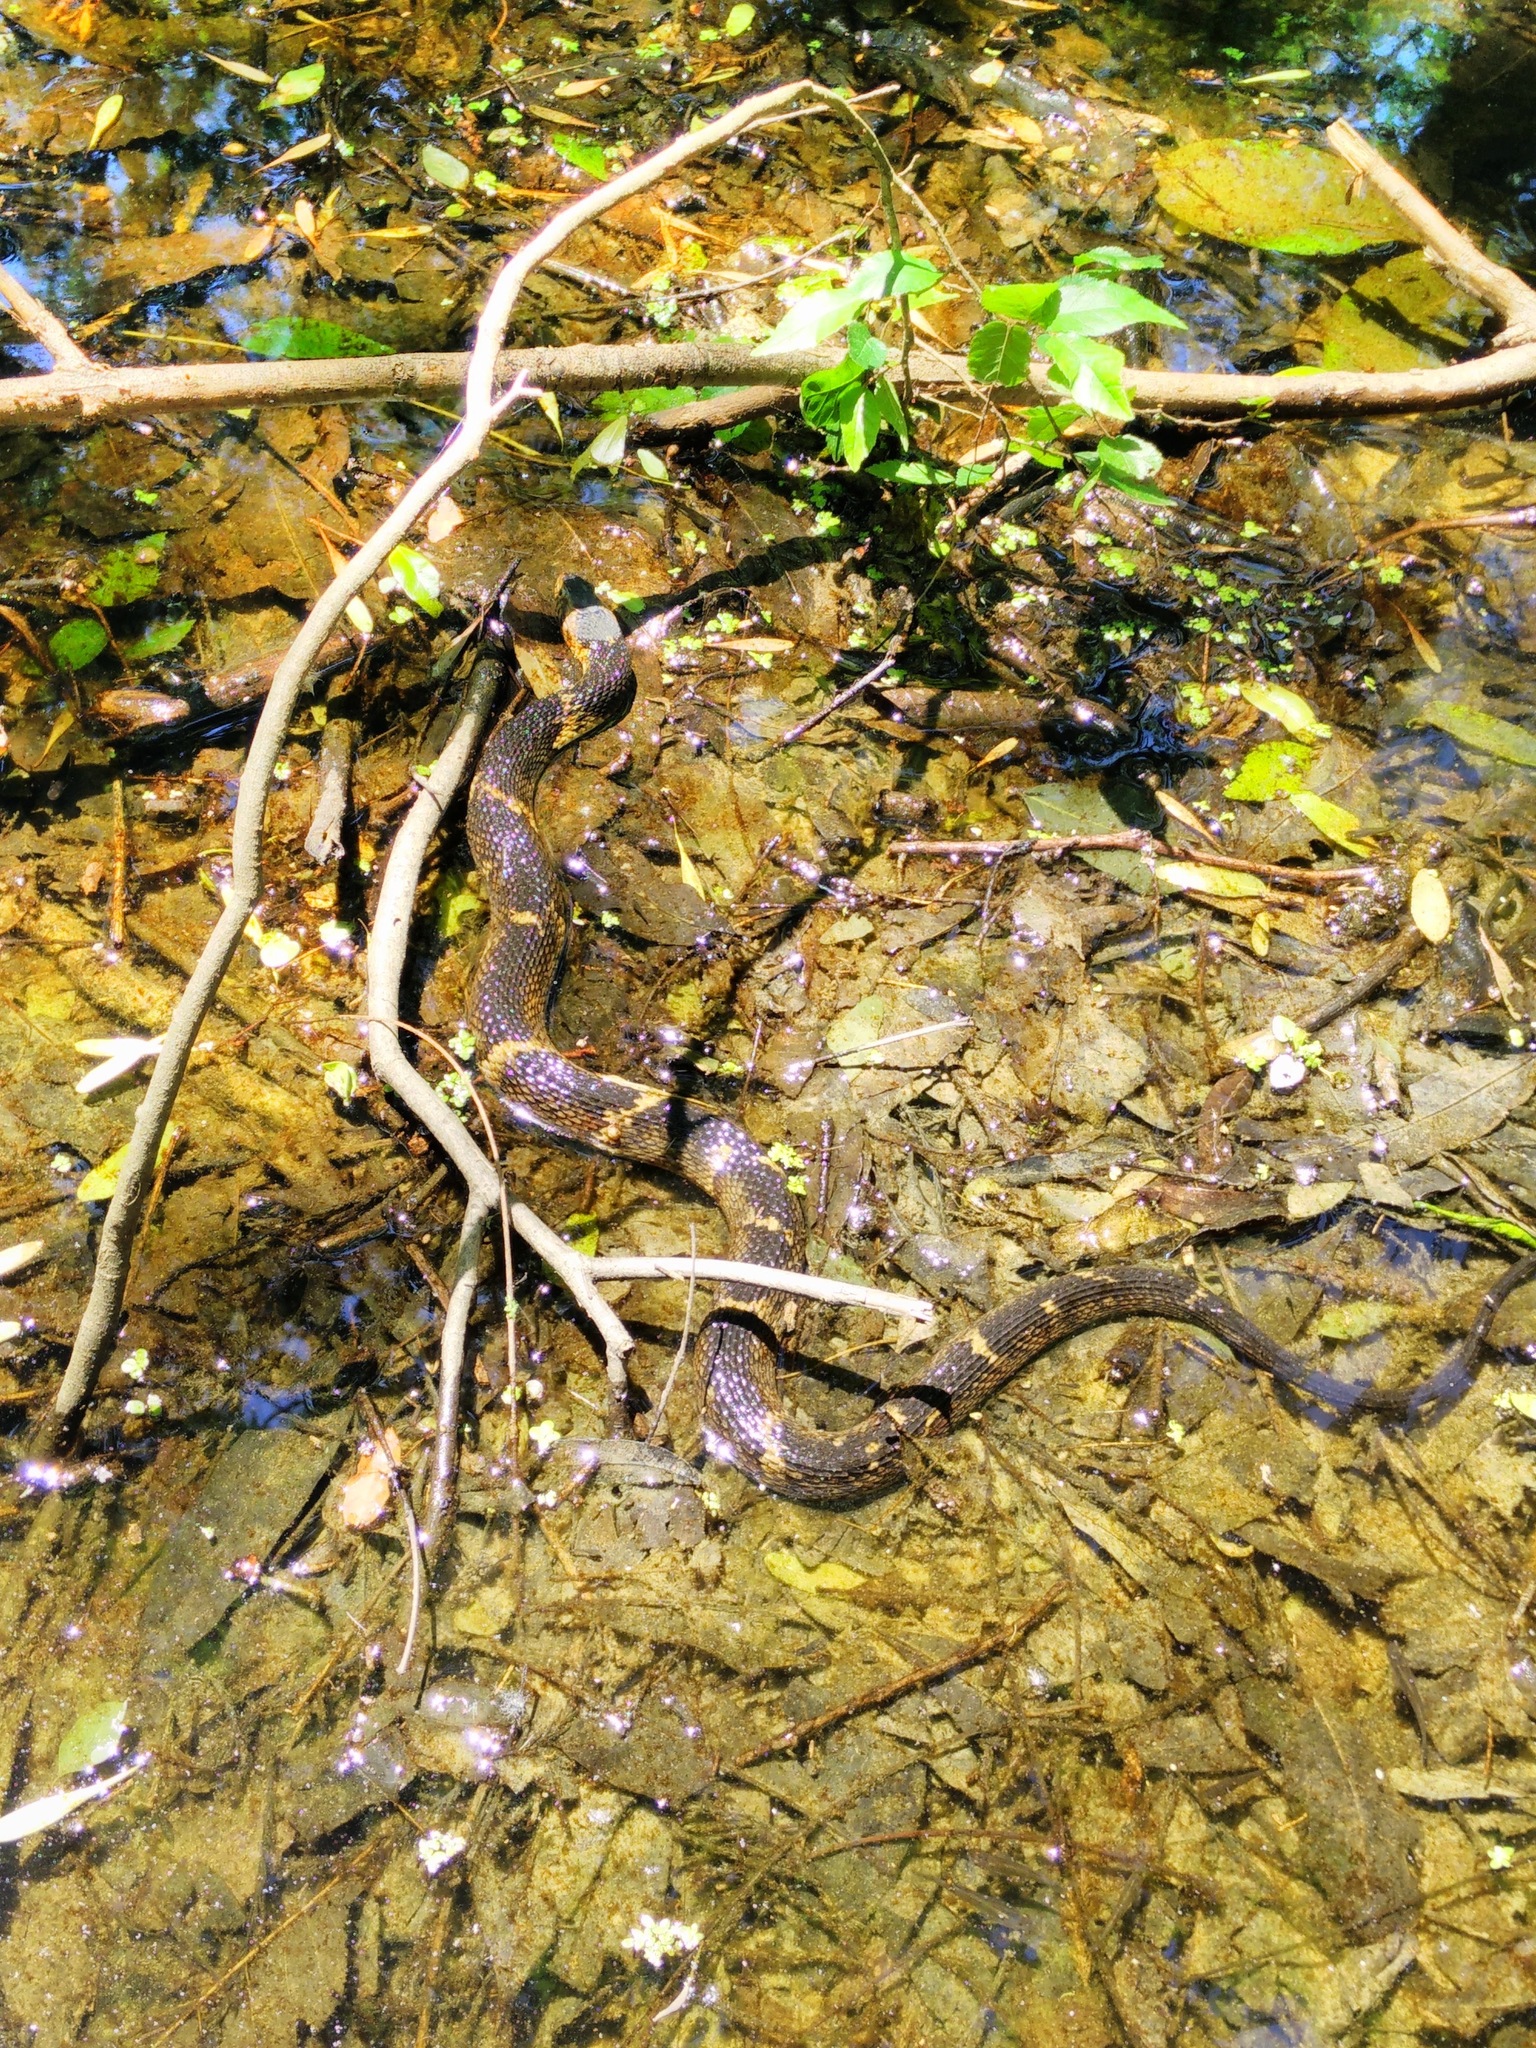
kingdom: Animalia
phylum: Chordata
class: Squamata
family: Colubridae
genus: Nerodia
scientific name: Nerodia fasciata
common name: Southern water snake
